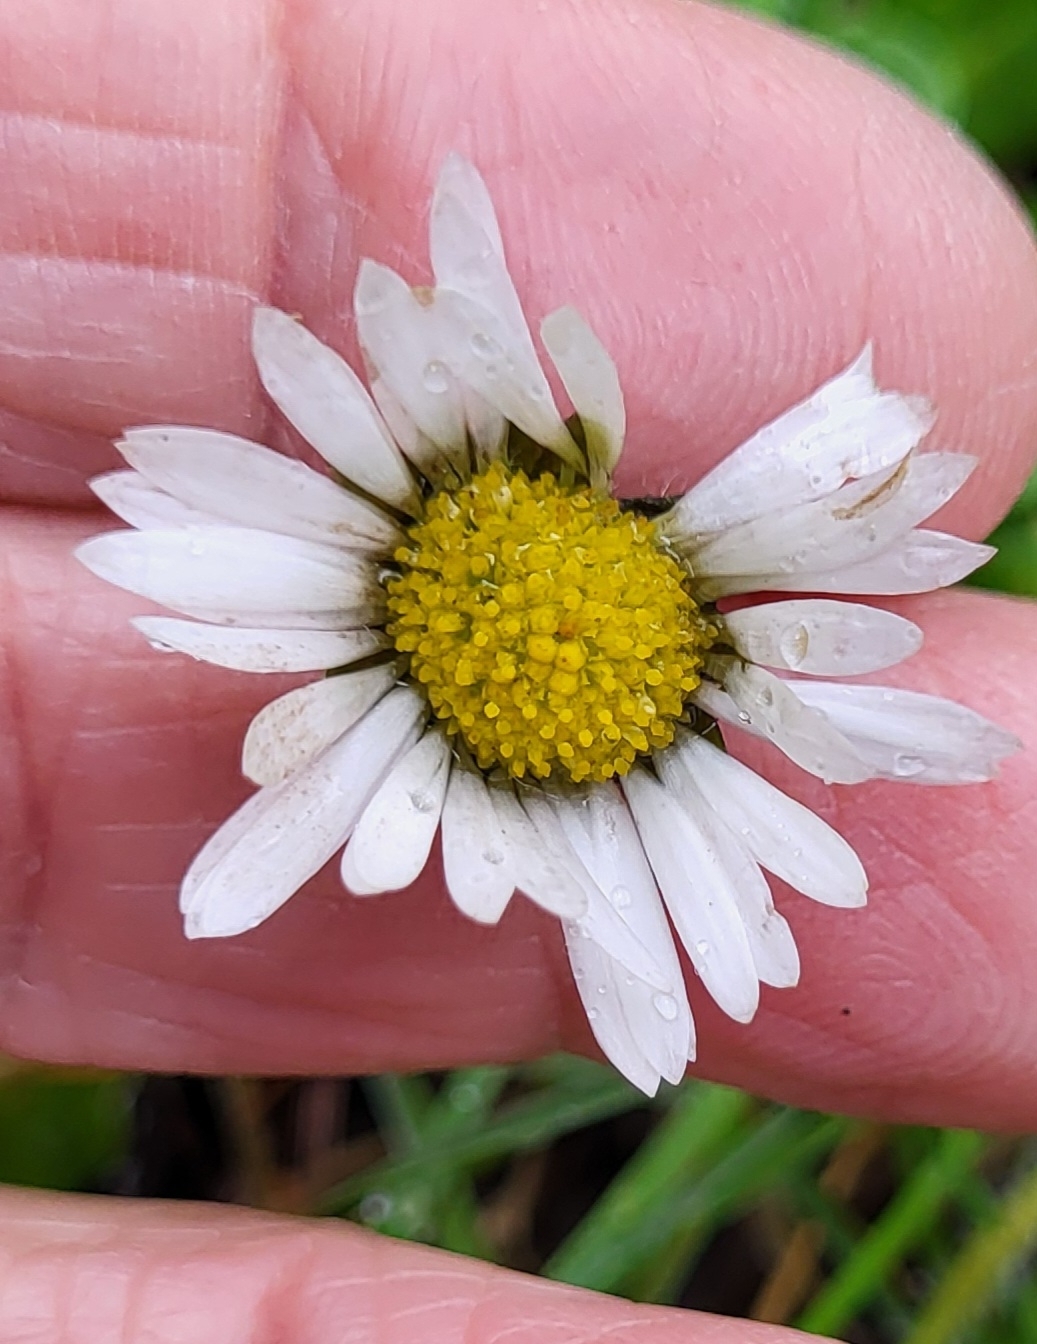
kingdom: Plantae
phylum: Tracheophyta
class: Magnoliopsida
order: Asterales
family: Asteraceae
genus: Bellis
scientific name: Bellis perennis
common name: Lawndaisy
